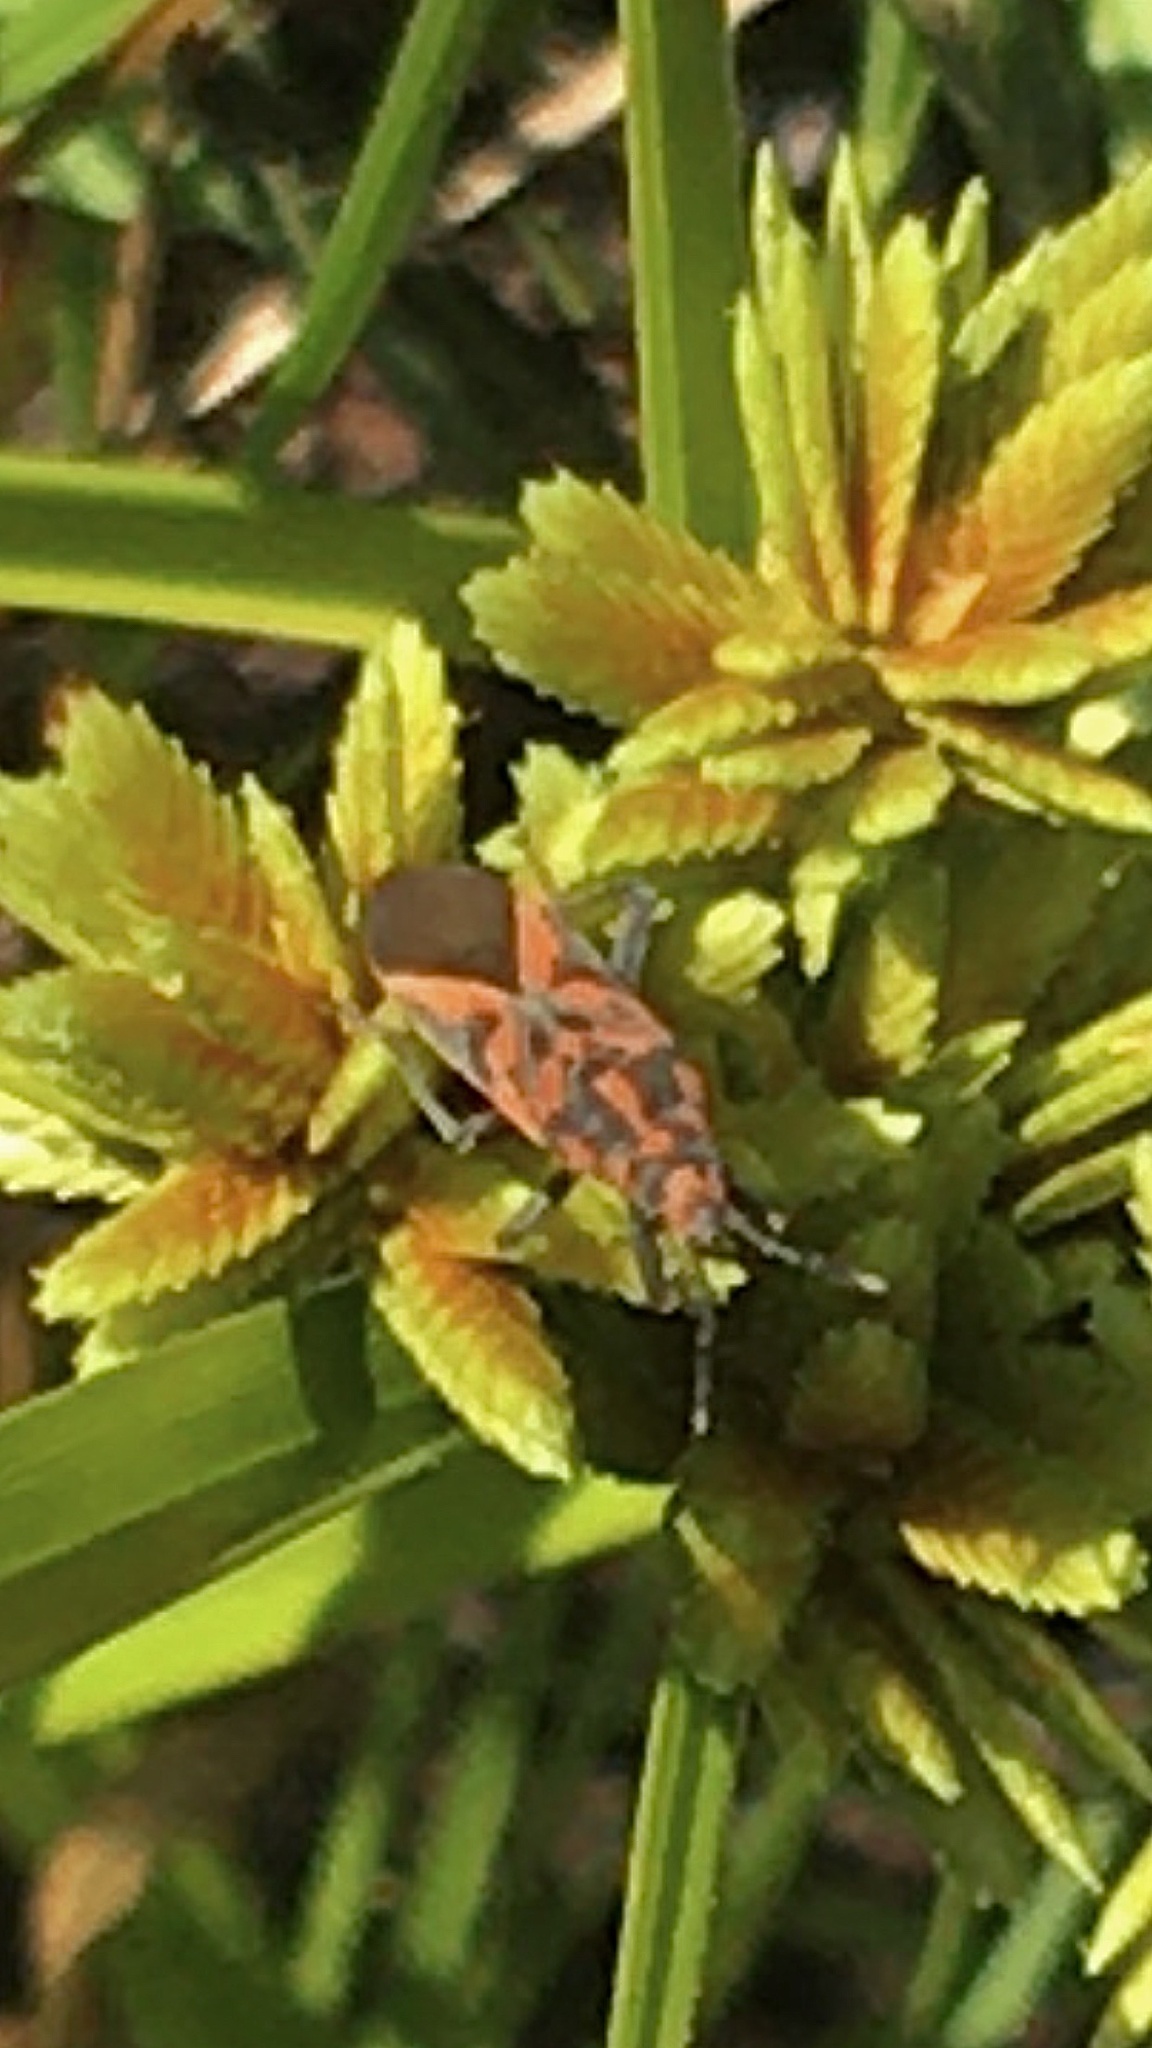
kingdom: Animalia
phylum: Arthropoda
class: Insecta
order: Hemiptera
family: Lygaeidae
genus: Spilostethus
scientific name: Spilostethus furcula
